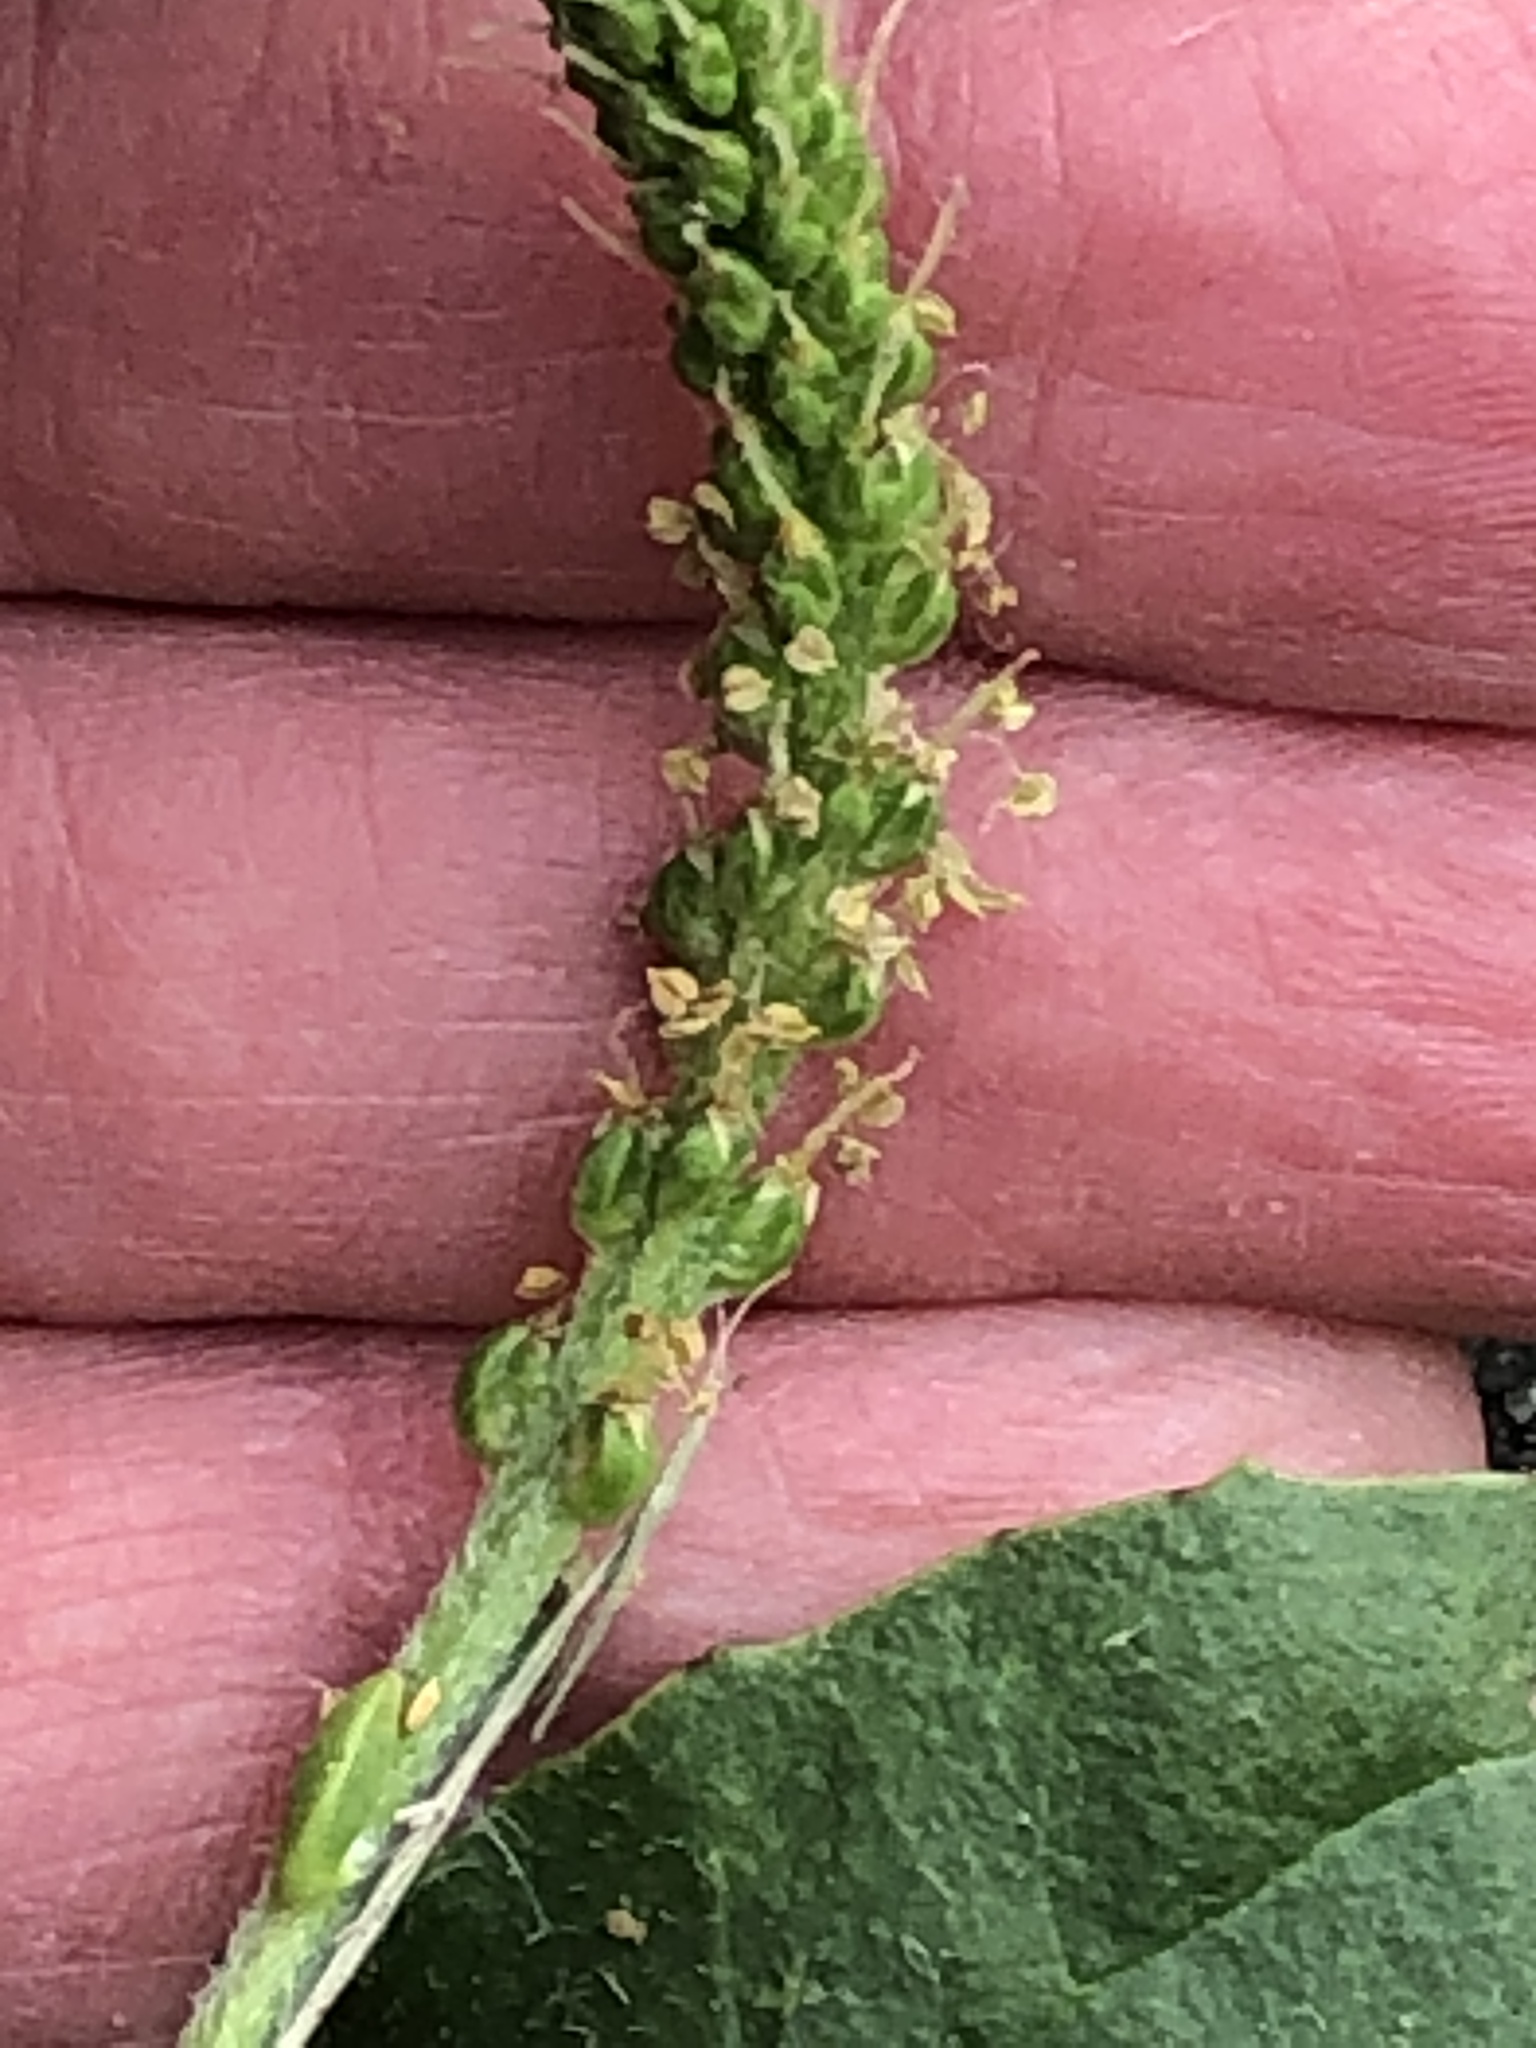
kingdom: Plantae
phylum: Tracheophyta
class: Magnoliopsida
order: Lamiales
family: Plantaginaceae
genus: Plantago
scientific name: Plantago major
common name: Common plantain
